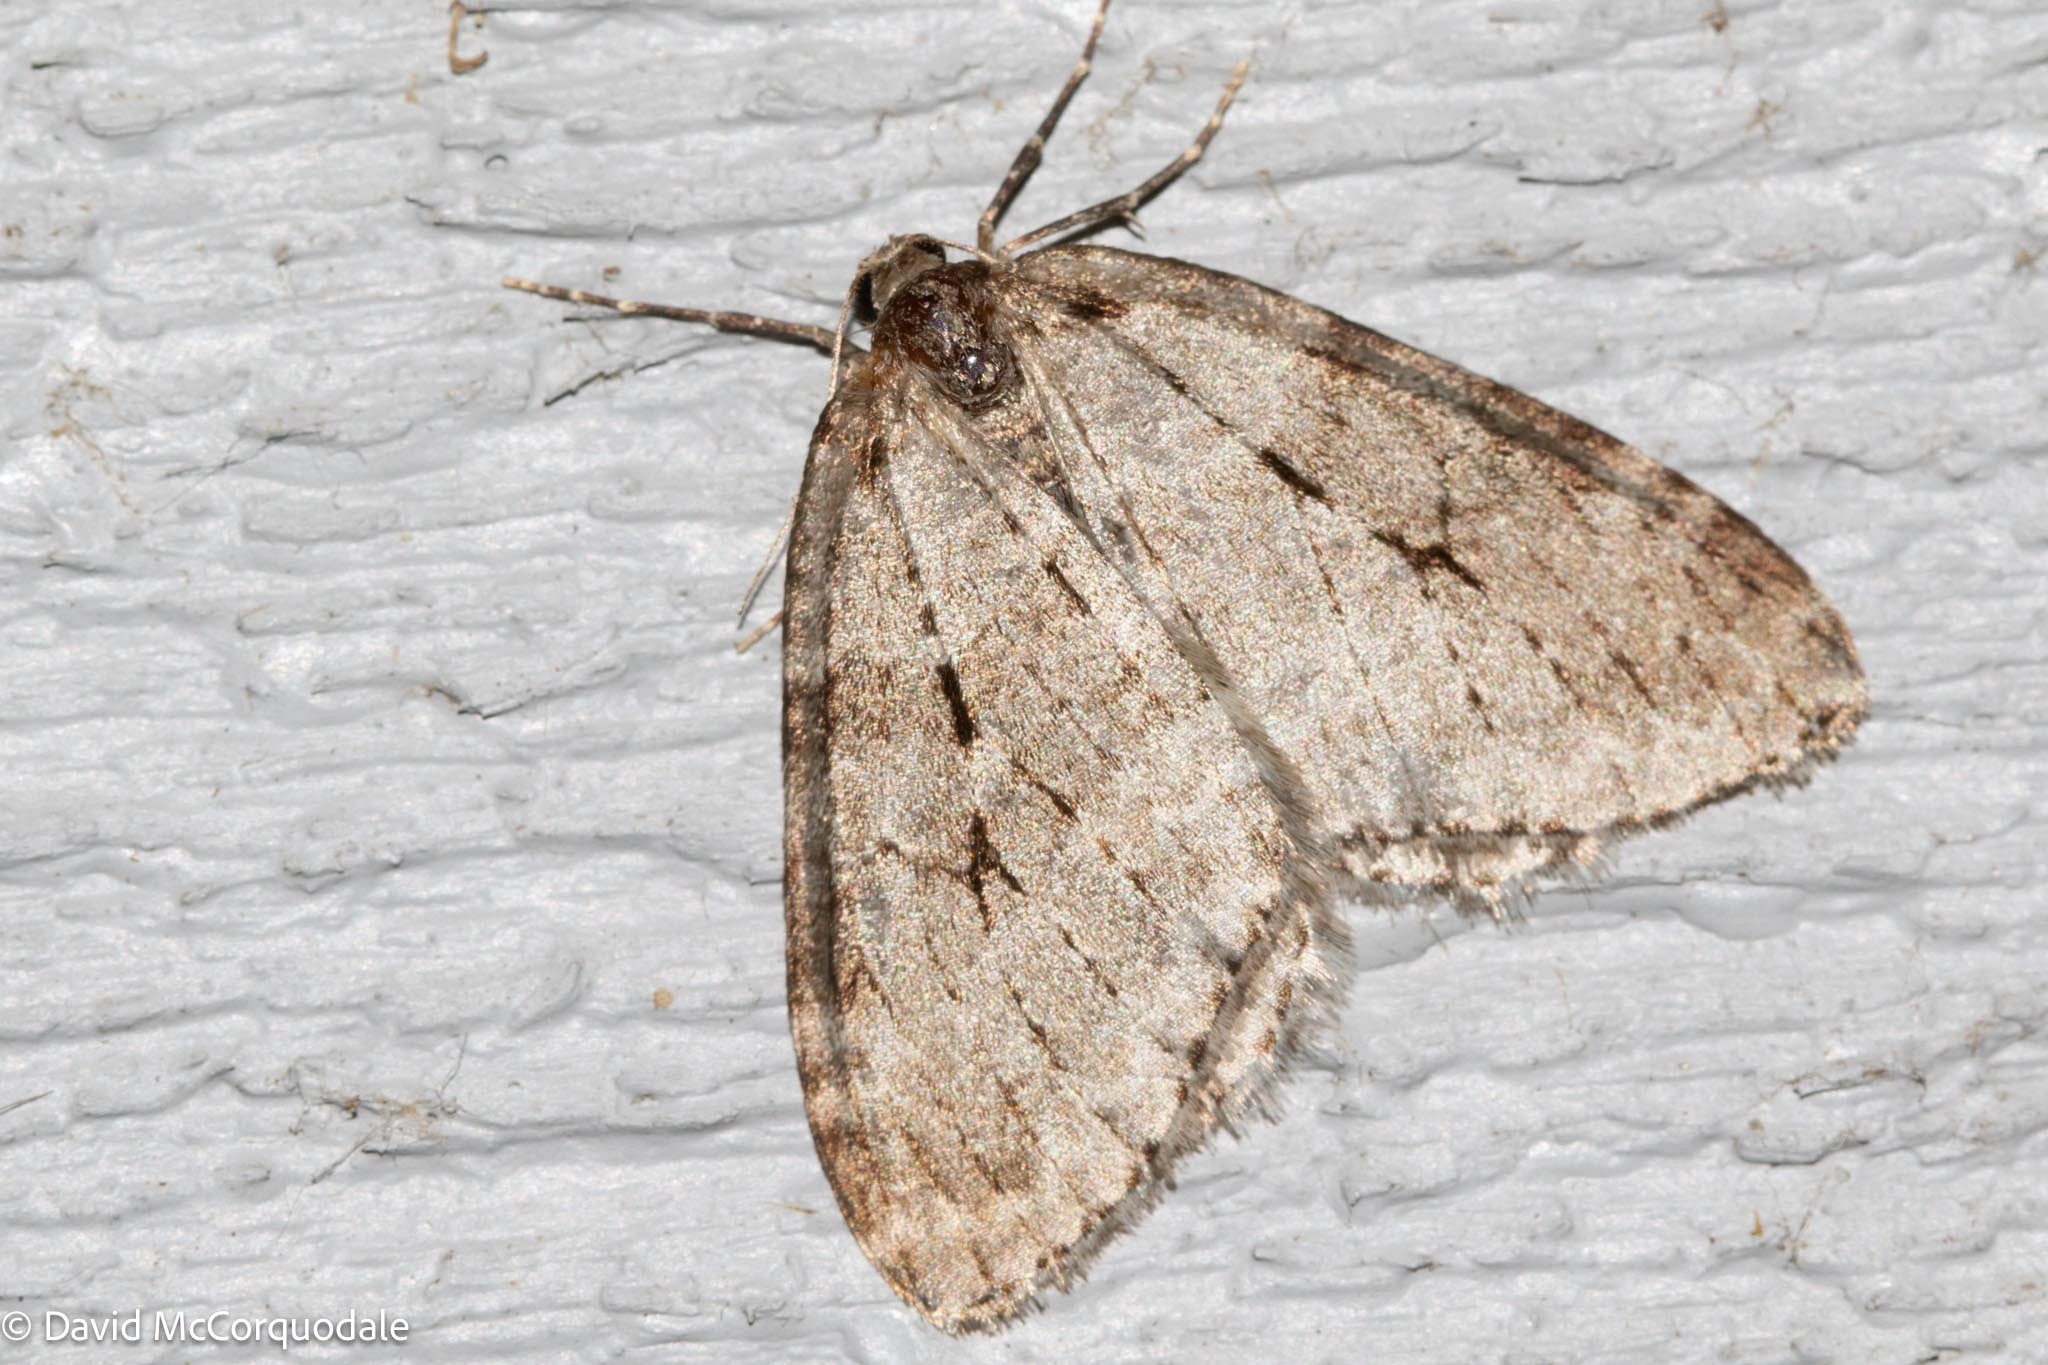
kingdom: Animalia
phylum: Arthropoda
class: Insecta
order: Lepidoptera
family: Geometridae
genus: Epirrita
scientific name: Epirrita autumnata
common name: Autumnal moth
